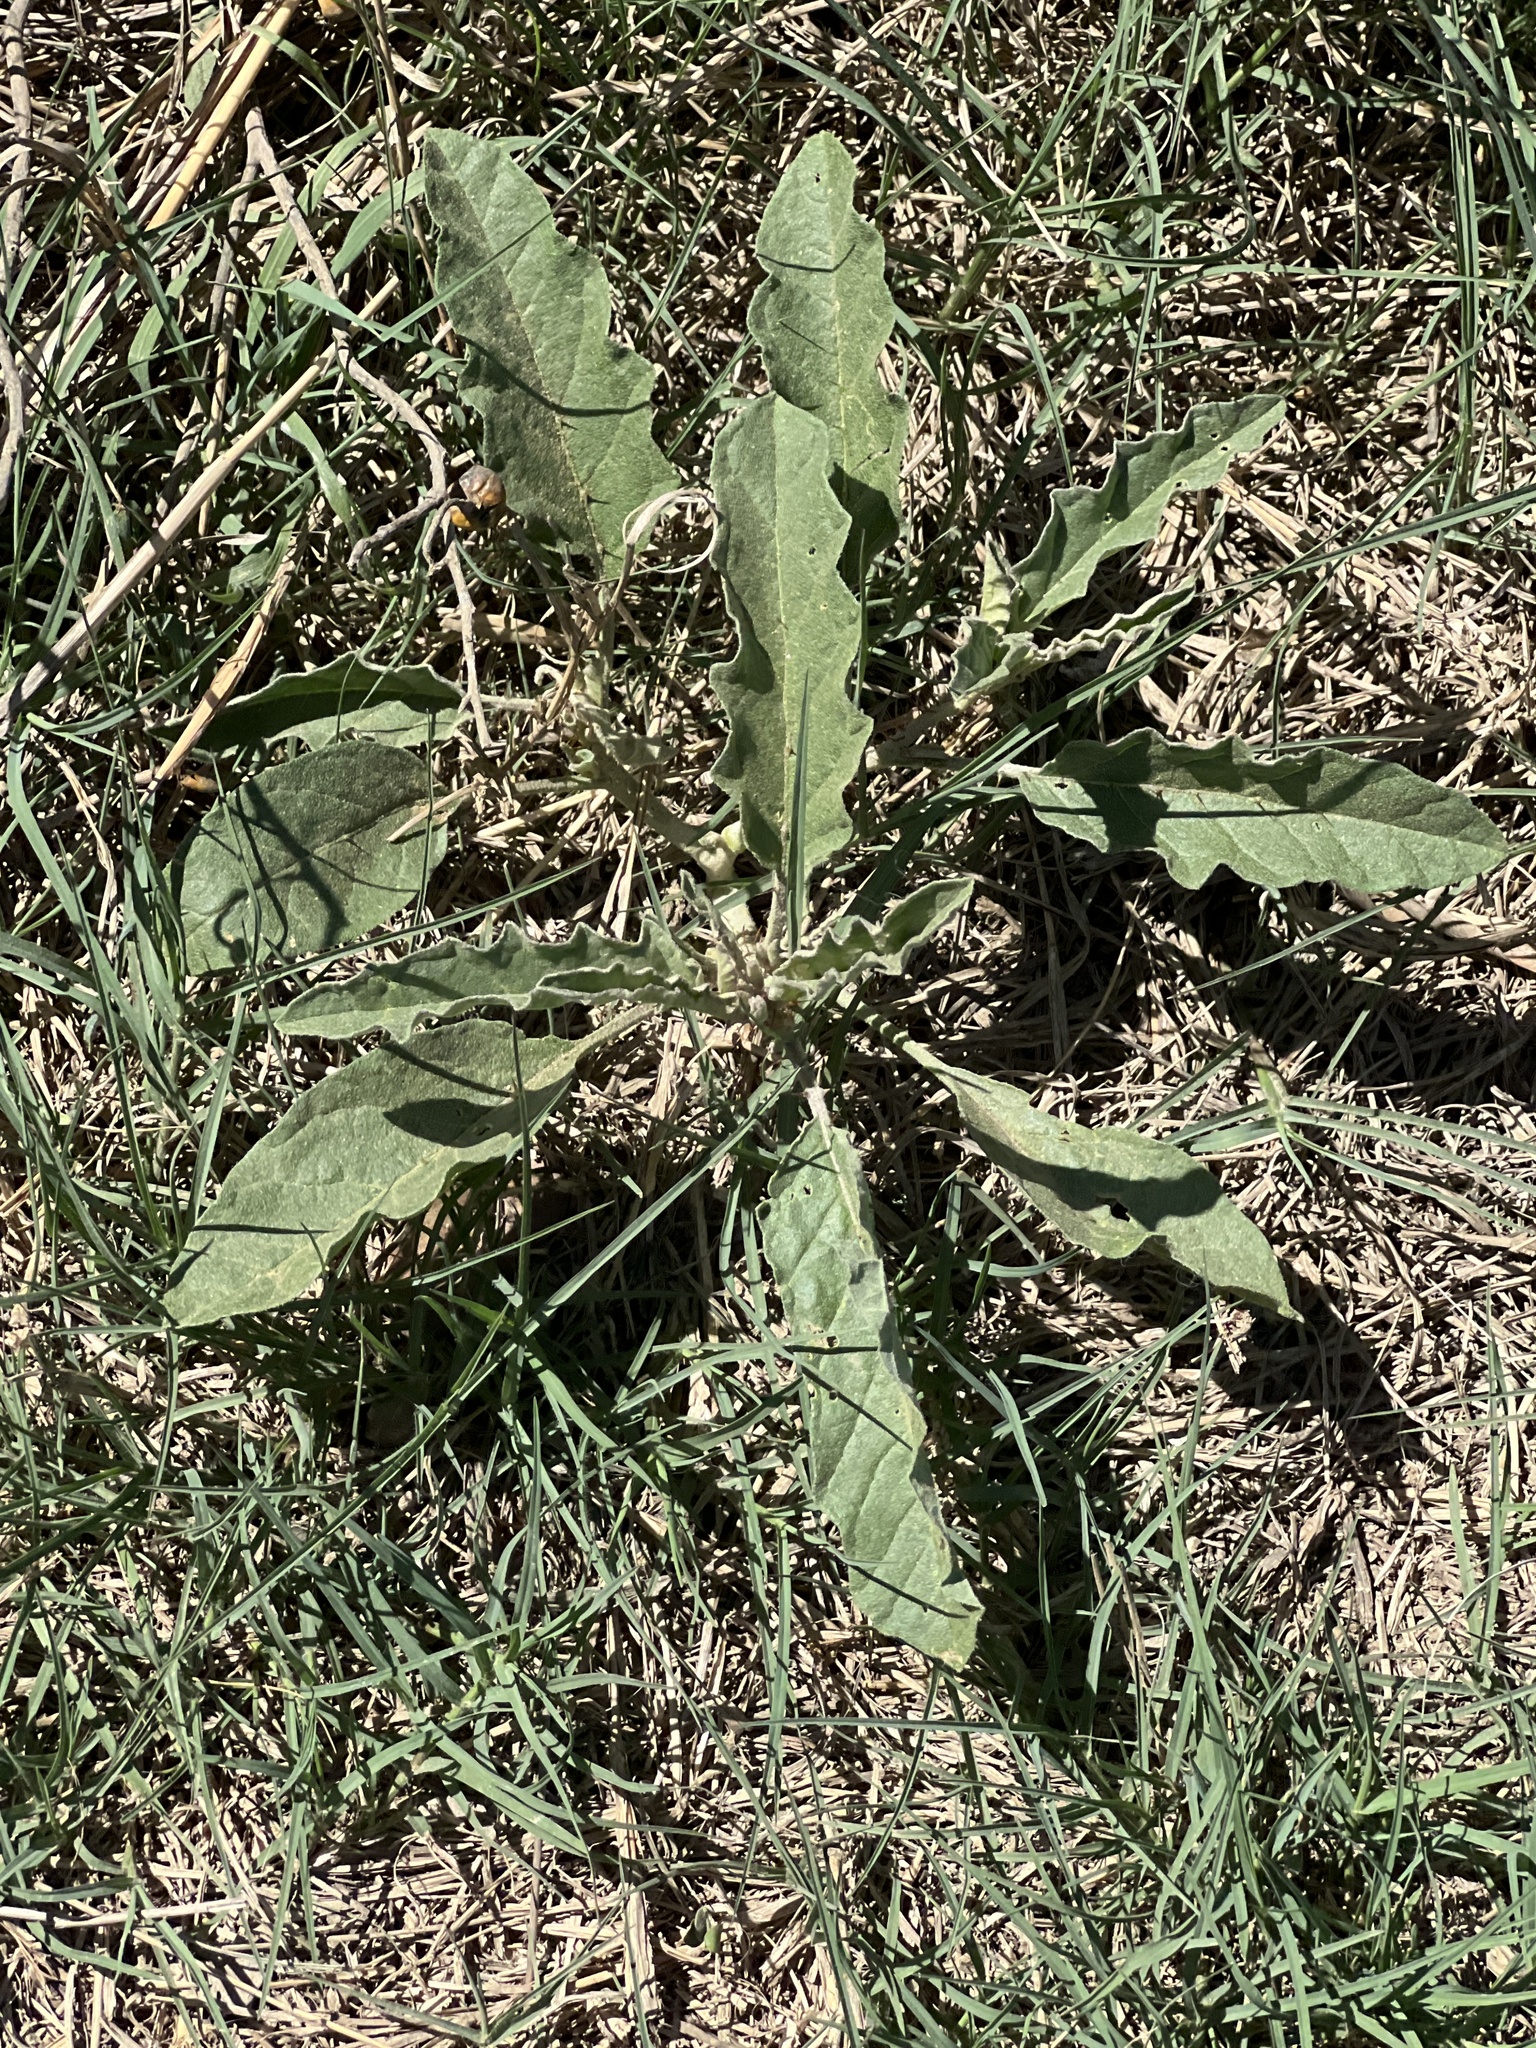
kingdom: Plantae
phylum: Tracheophyta
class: Magnoliopsida
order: Solanales
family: Solanaceae
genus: Solanum
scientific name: Solanum elaeagnifolium
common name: Silverleaf nightshade
